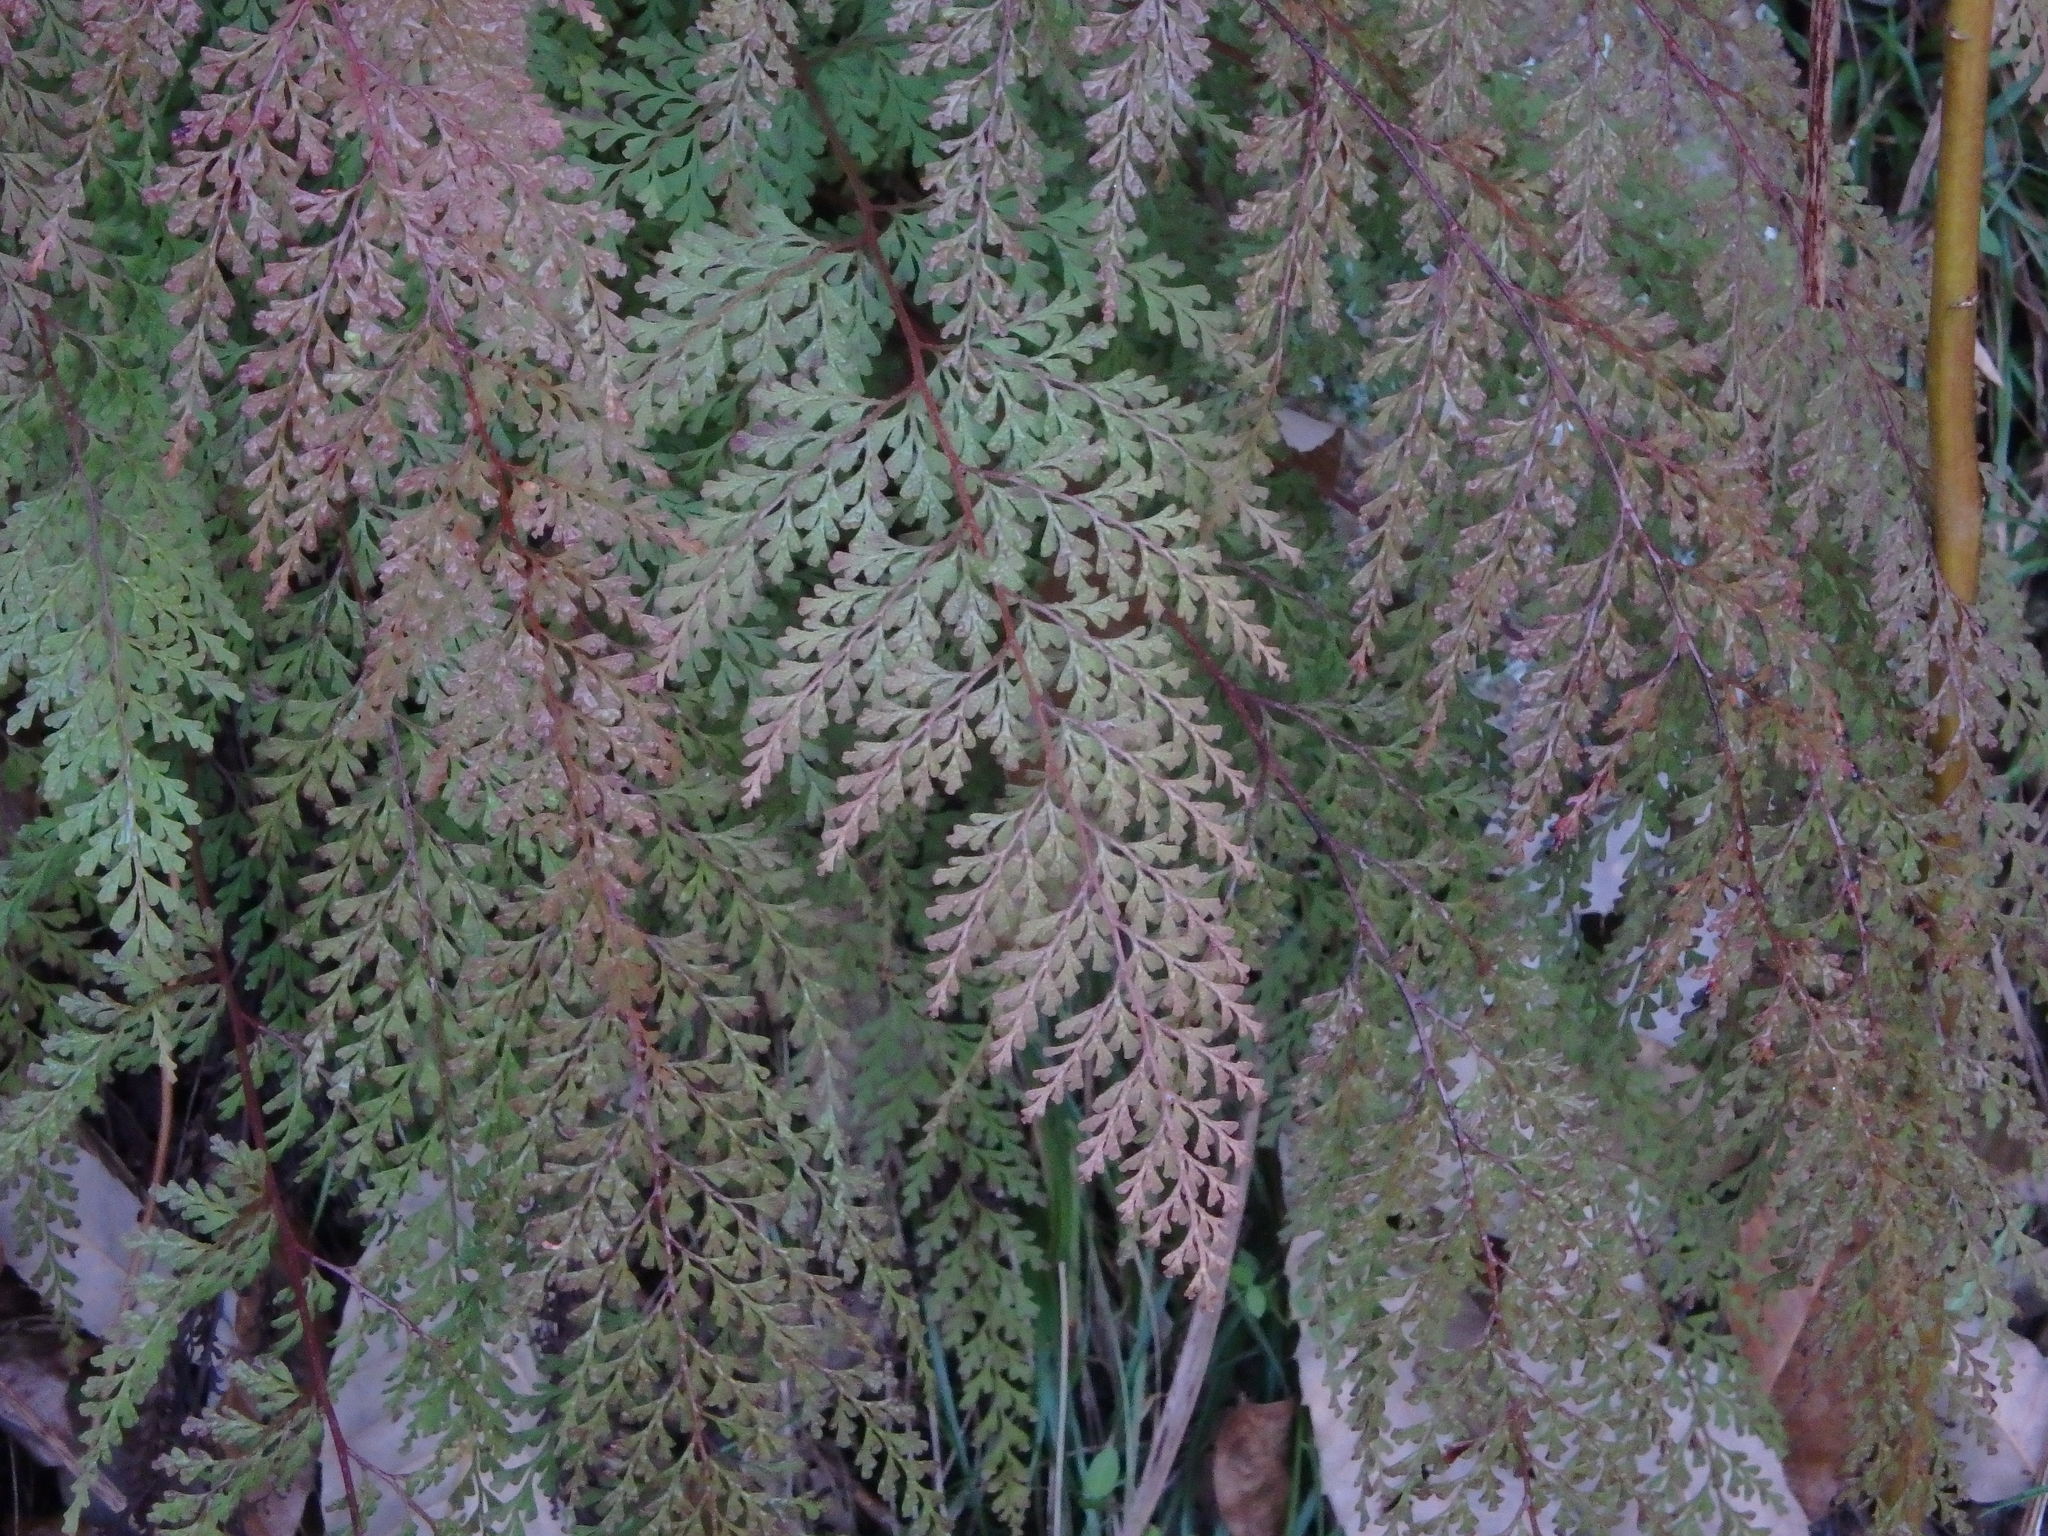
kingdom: Plantae
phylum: Tracheophyta
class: Polypodiopsida
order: Polypodiales
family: Lindsaeaceae
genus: Odontosoria
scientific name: Odontosoria chinensis
